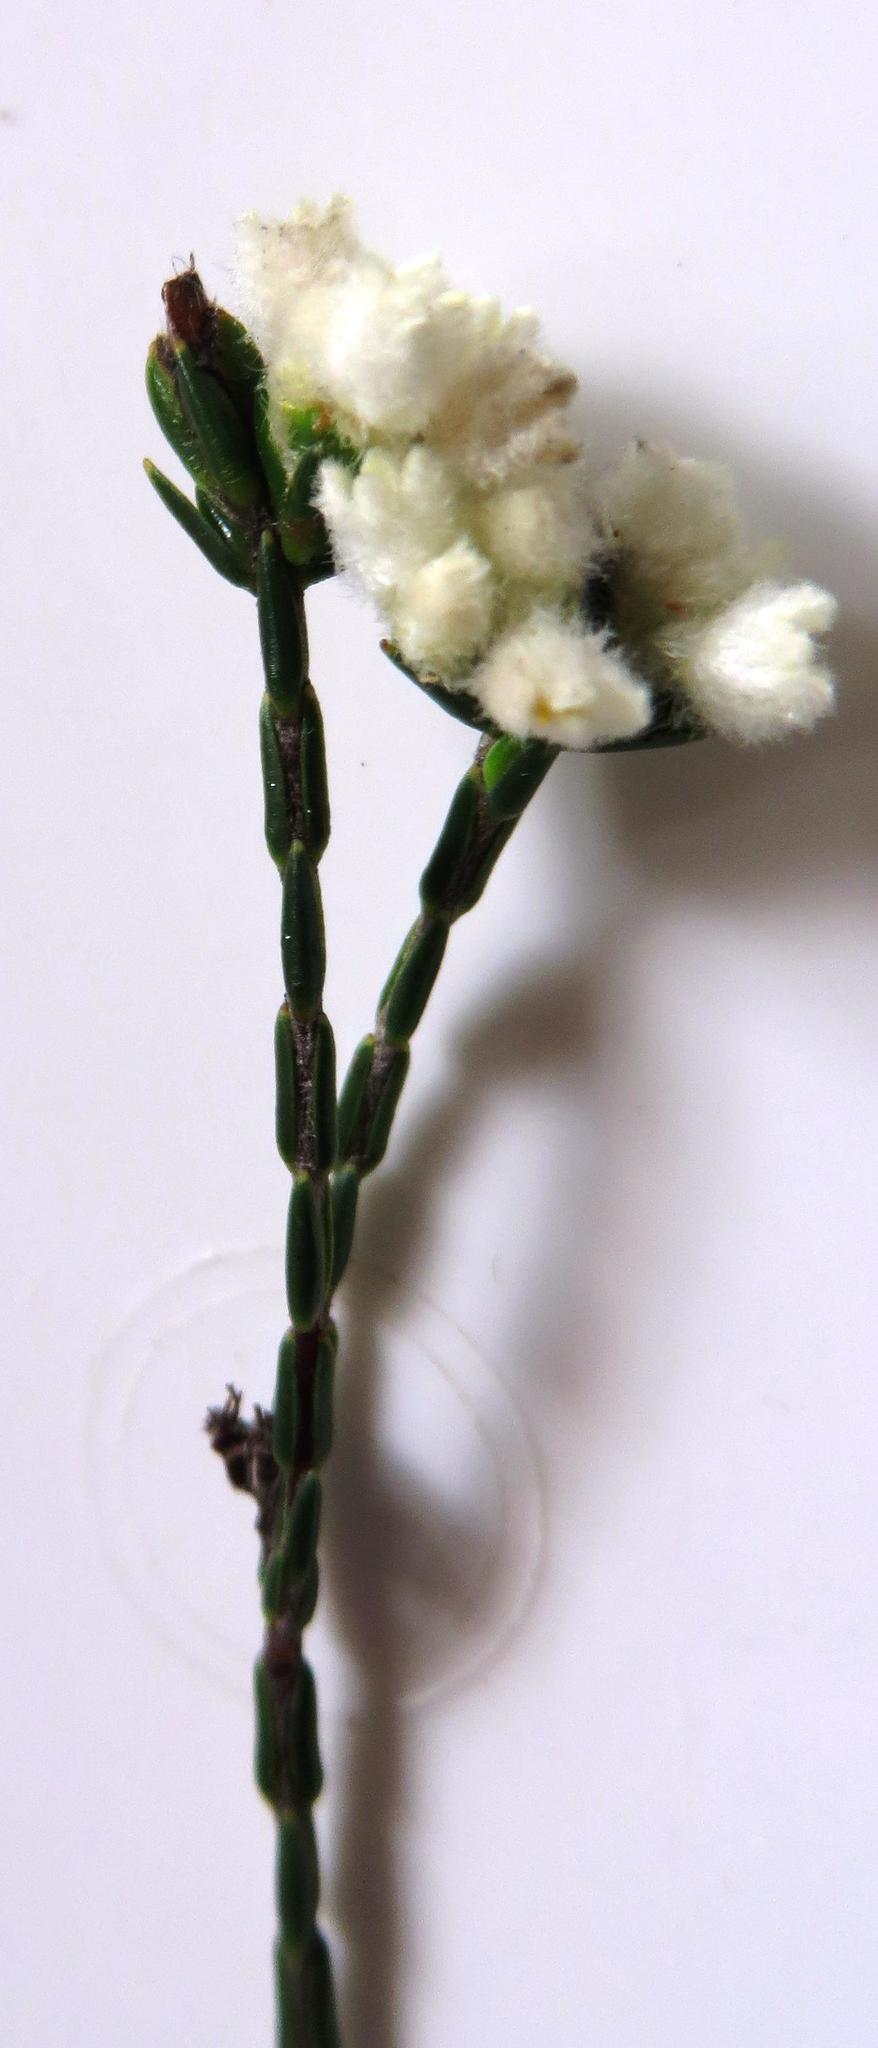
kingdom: Plantae
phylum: Tracheophyta
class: Magnoliopsida
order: Malvales
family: Thymelaeaceae
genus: Lachnaea
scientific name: Lachnaea greytonensis
